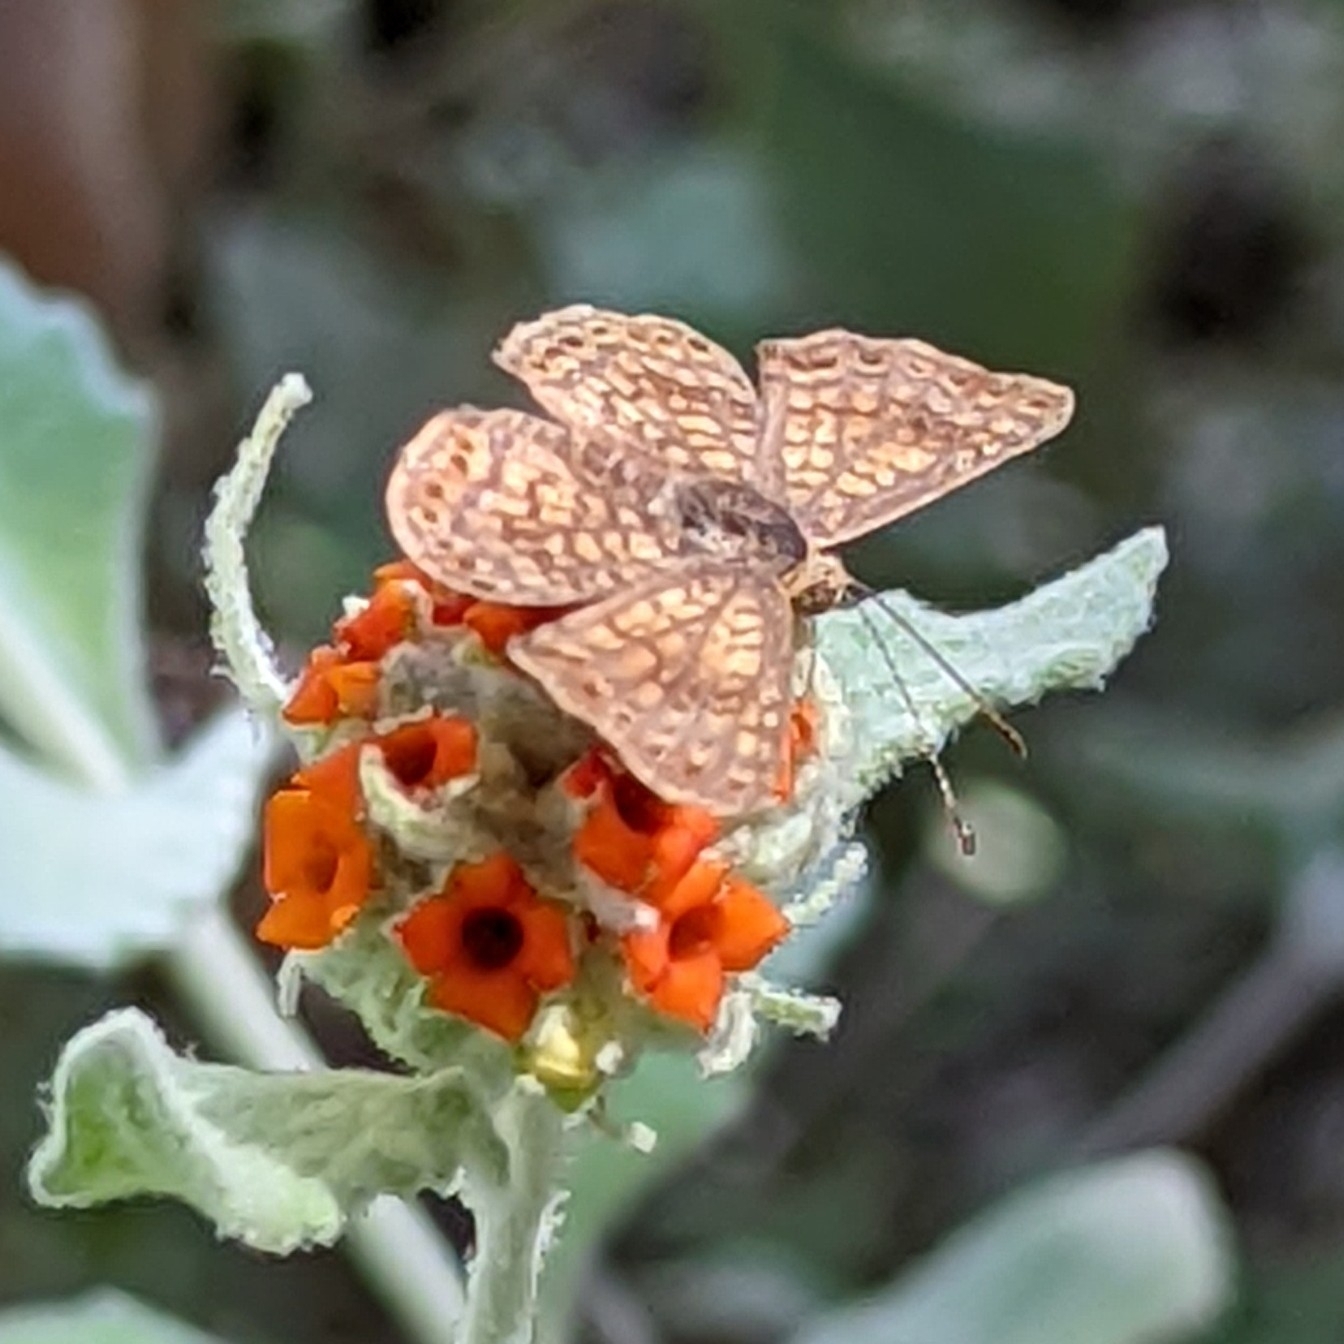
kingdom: Animalia
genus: Calephelis
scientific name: Calephelis nemesis
